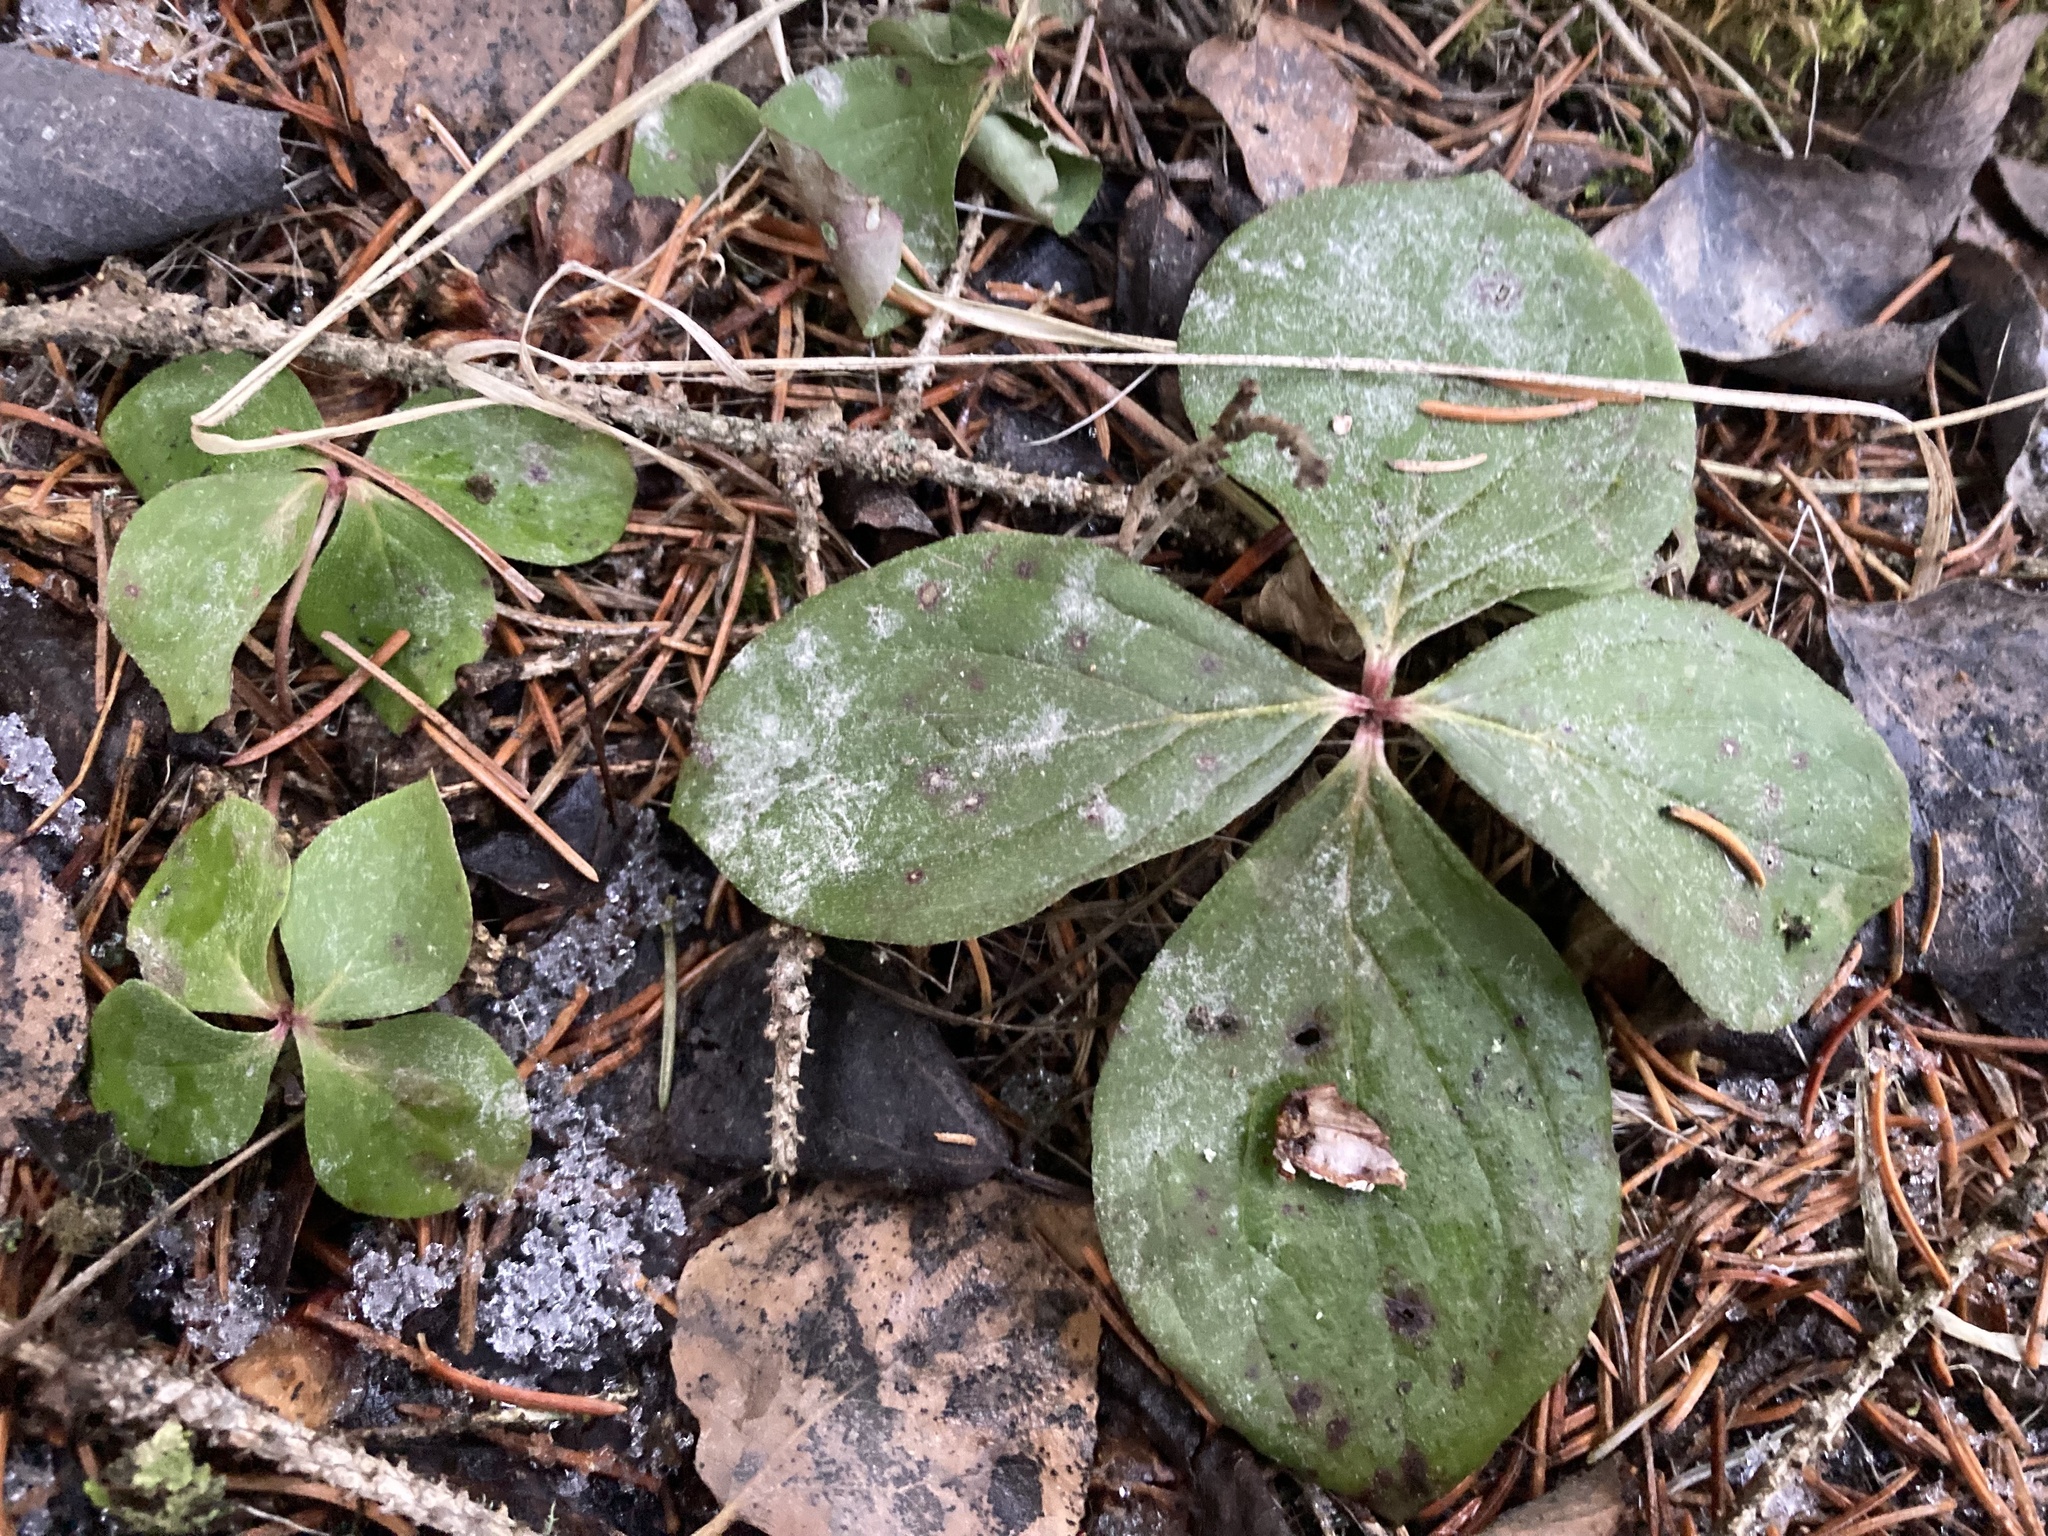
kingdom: Plantae
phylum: Tracheophyta
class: Magnoliopsida
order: Cornales
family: Cornaceae
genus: Cornus
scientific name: Cornus canadensis
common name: Creeping dogwood
